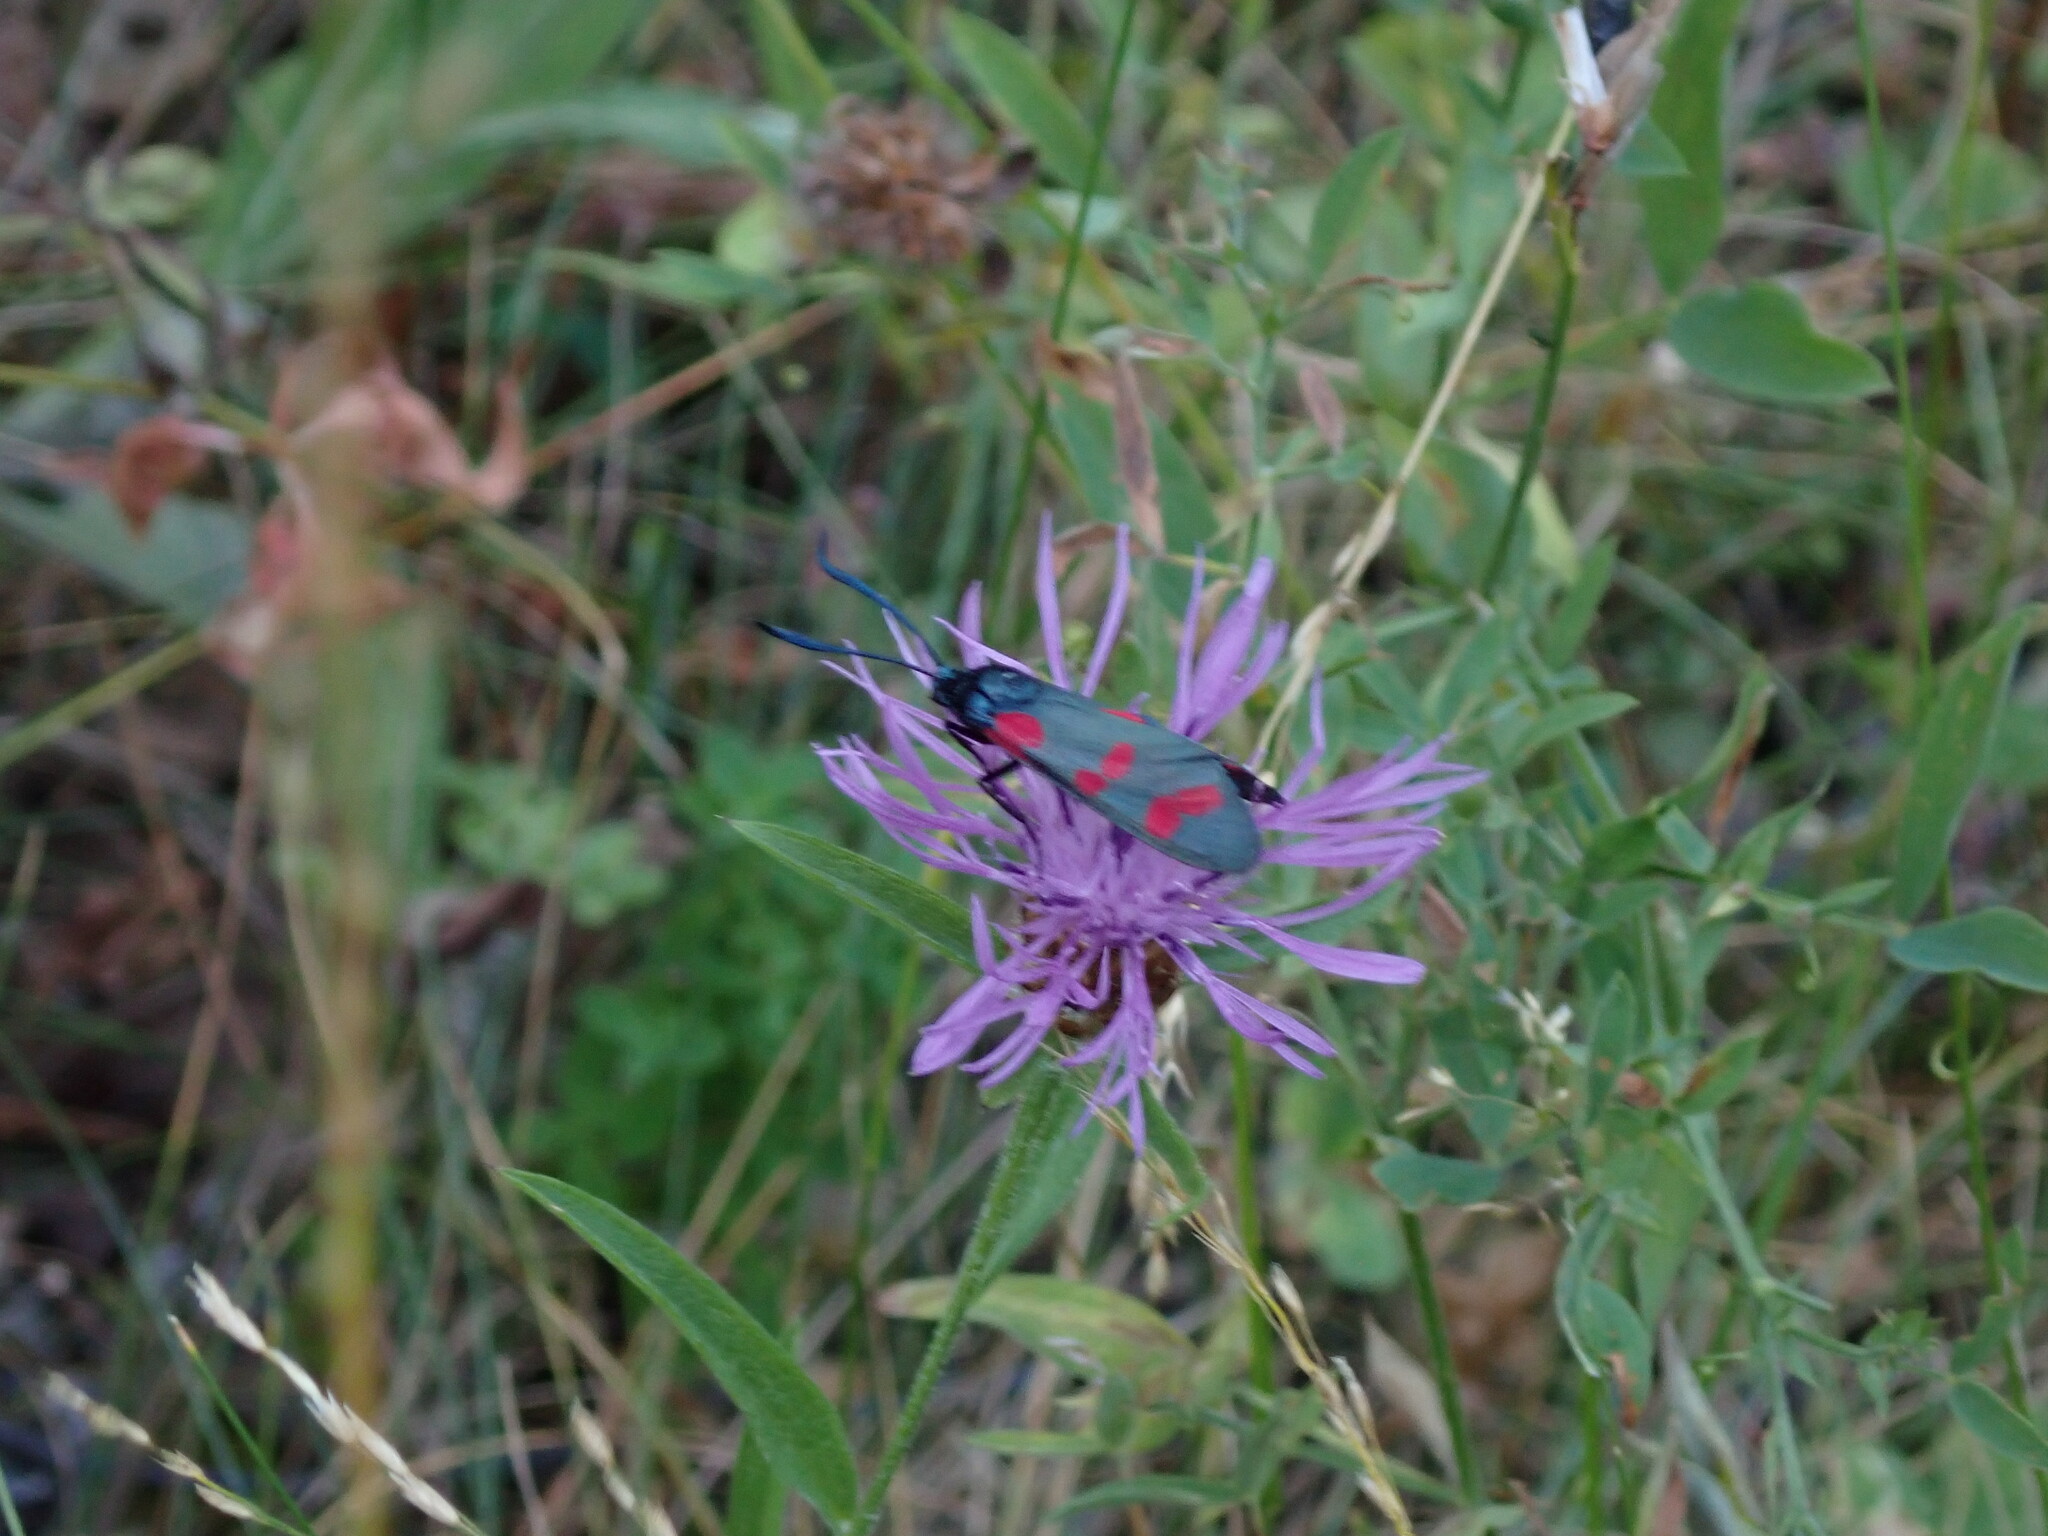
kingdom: Animalia
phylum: Arthropoda
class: Insecta
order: Lepidoptera
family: Zygaenidae
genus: Zygaena
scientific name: Zygaena filipendulae
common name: Six-spot burnet
